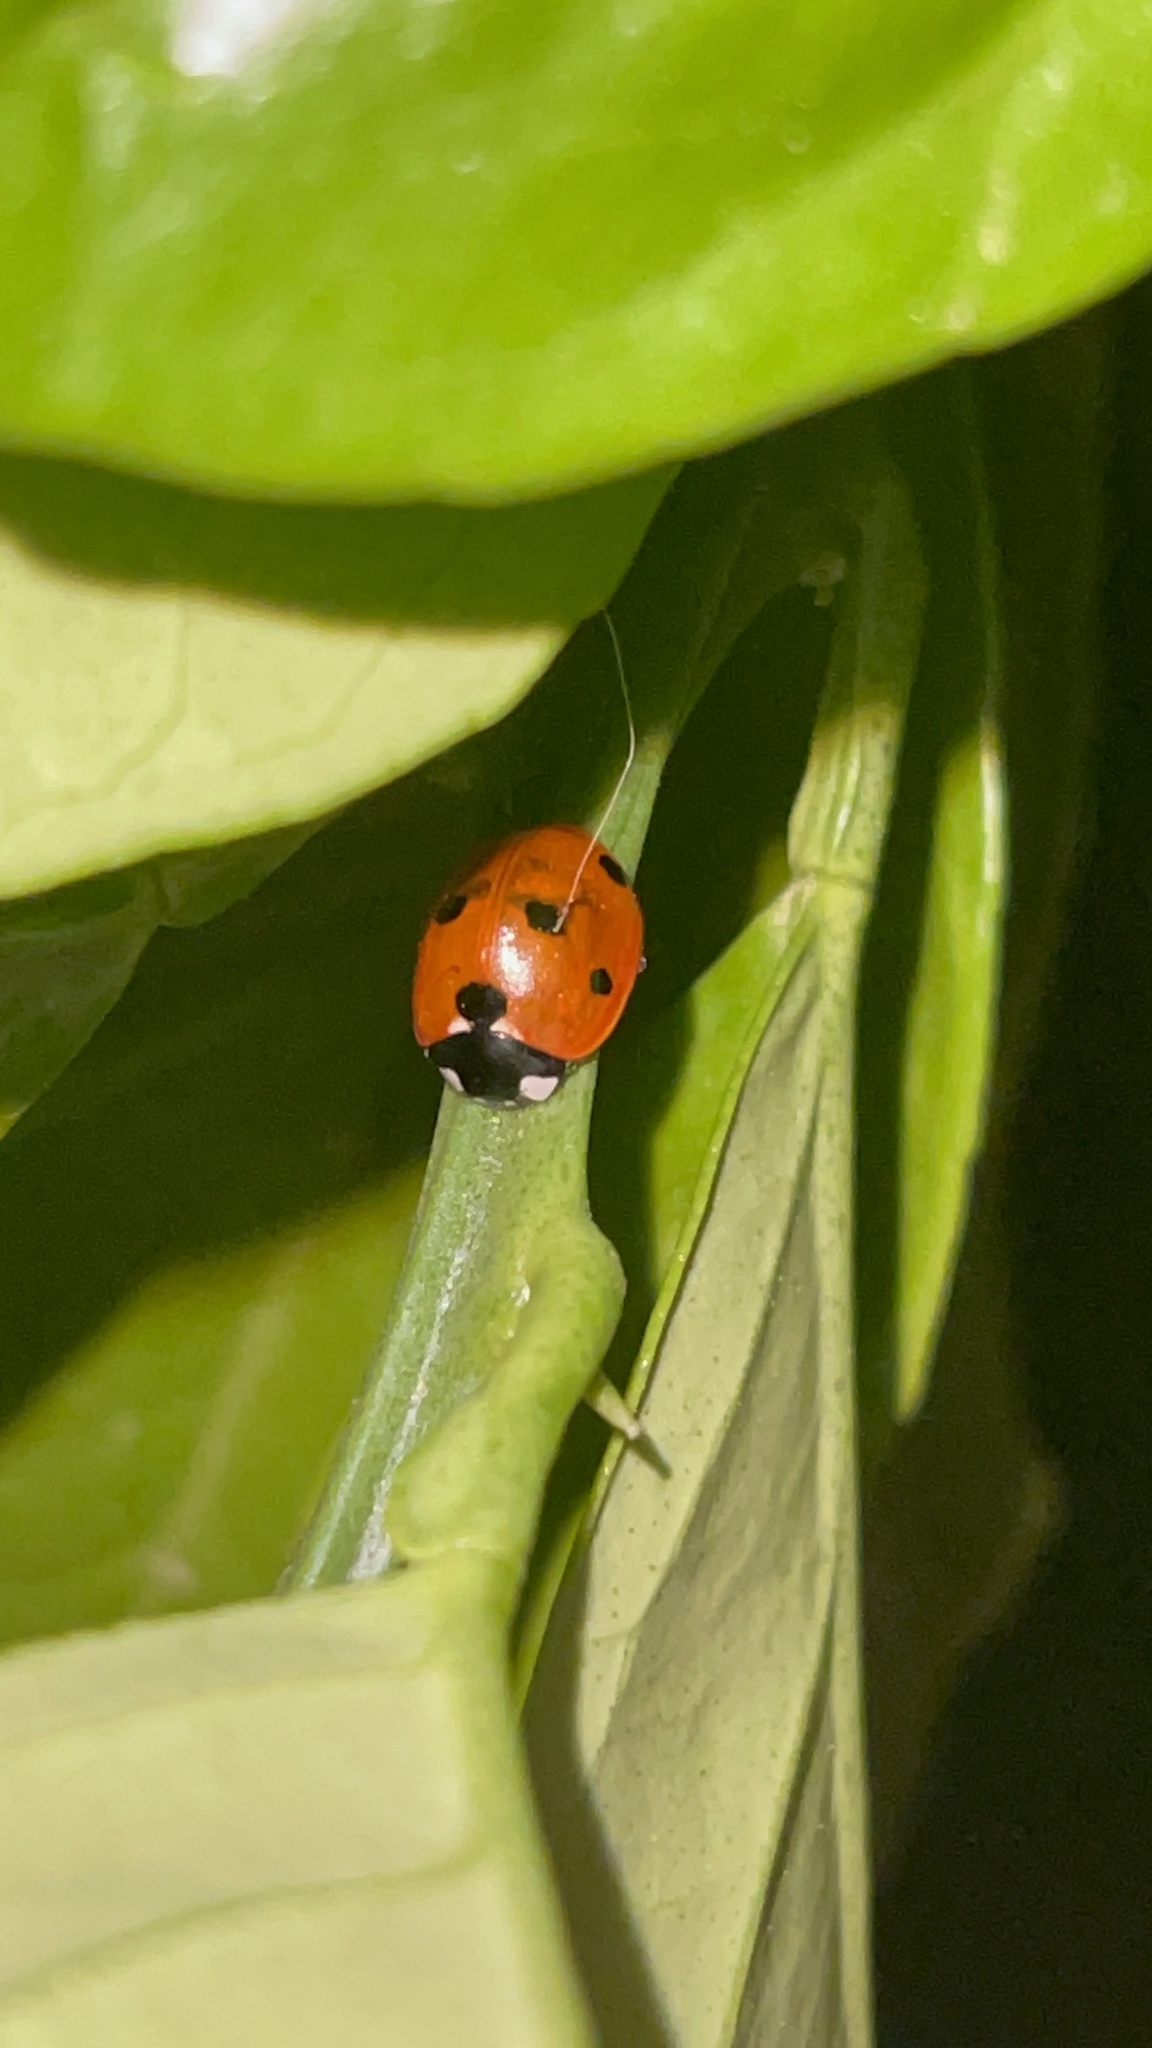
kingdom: Animalia
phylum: Arthropoda
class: Insecta
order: Coleoptera
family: Coccinellidae
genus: Coccinella
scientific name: Coccinella septempunctata
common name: Sevenspotted lady beetle
